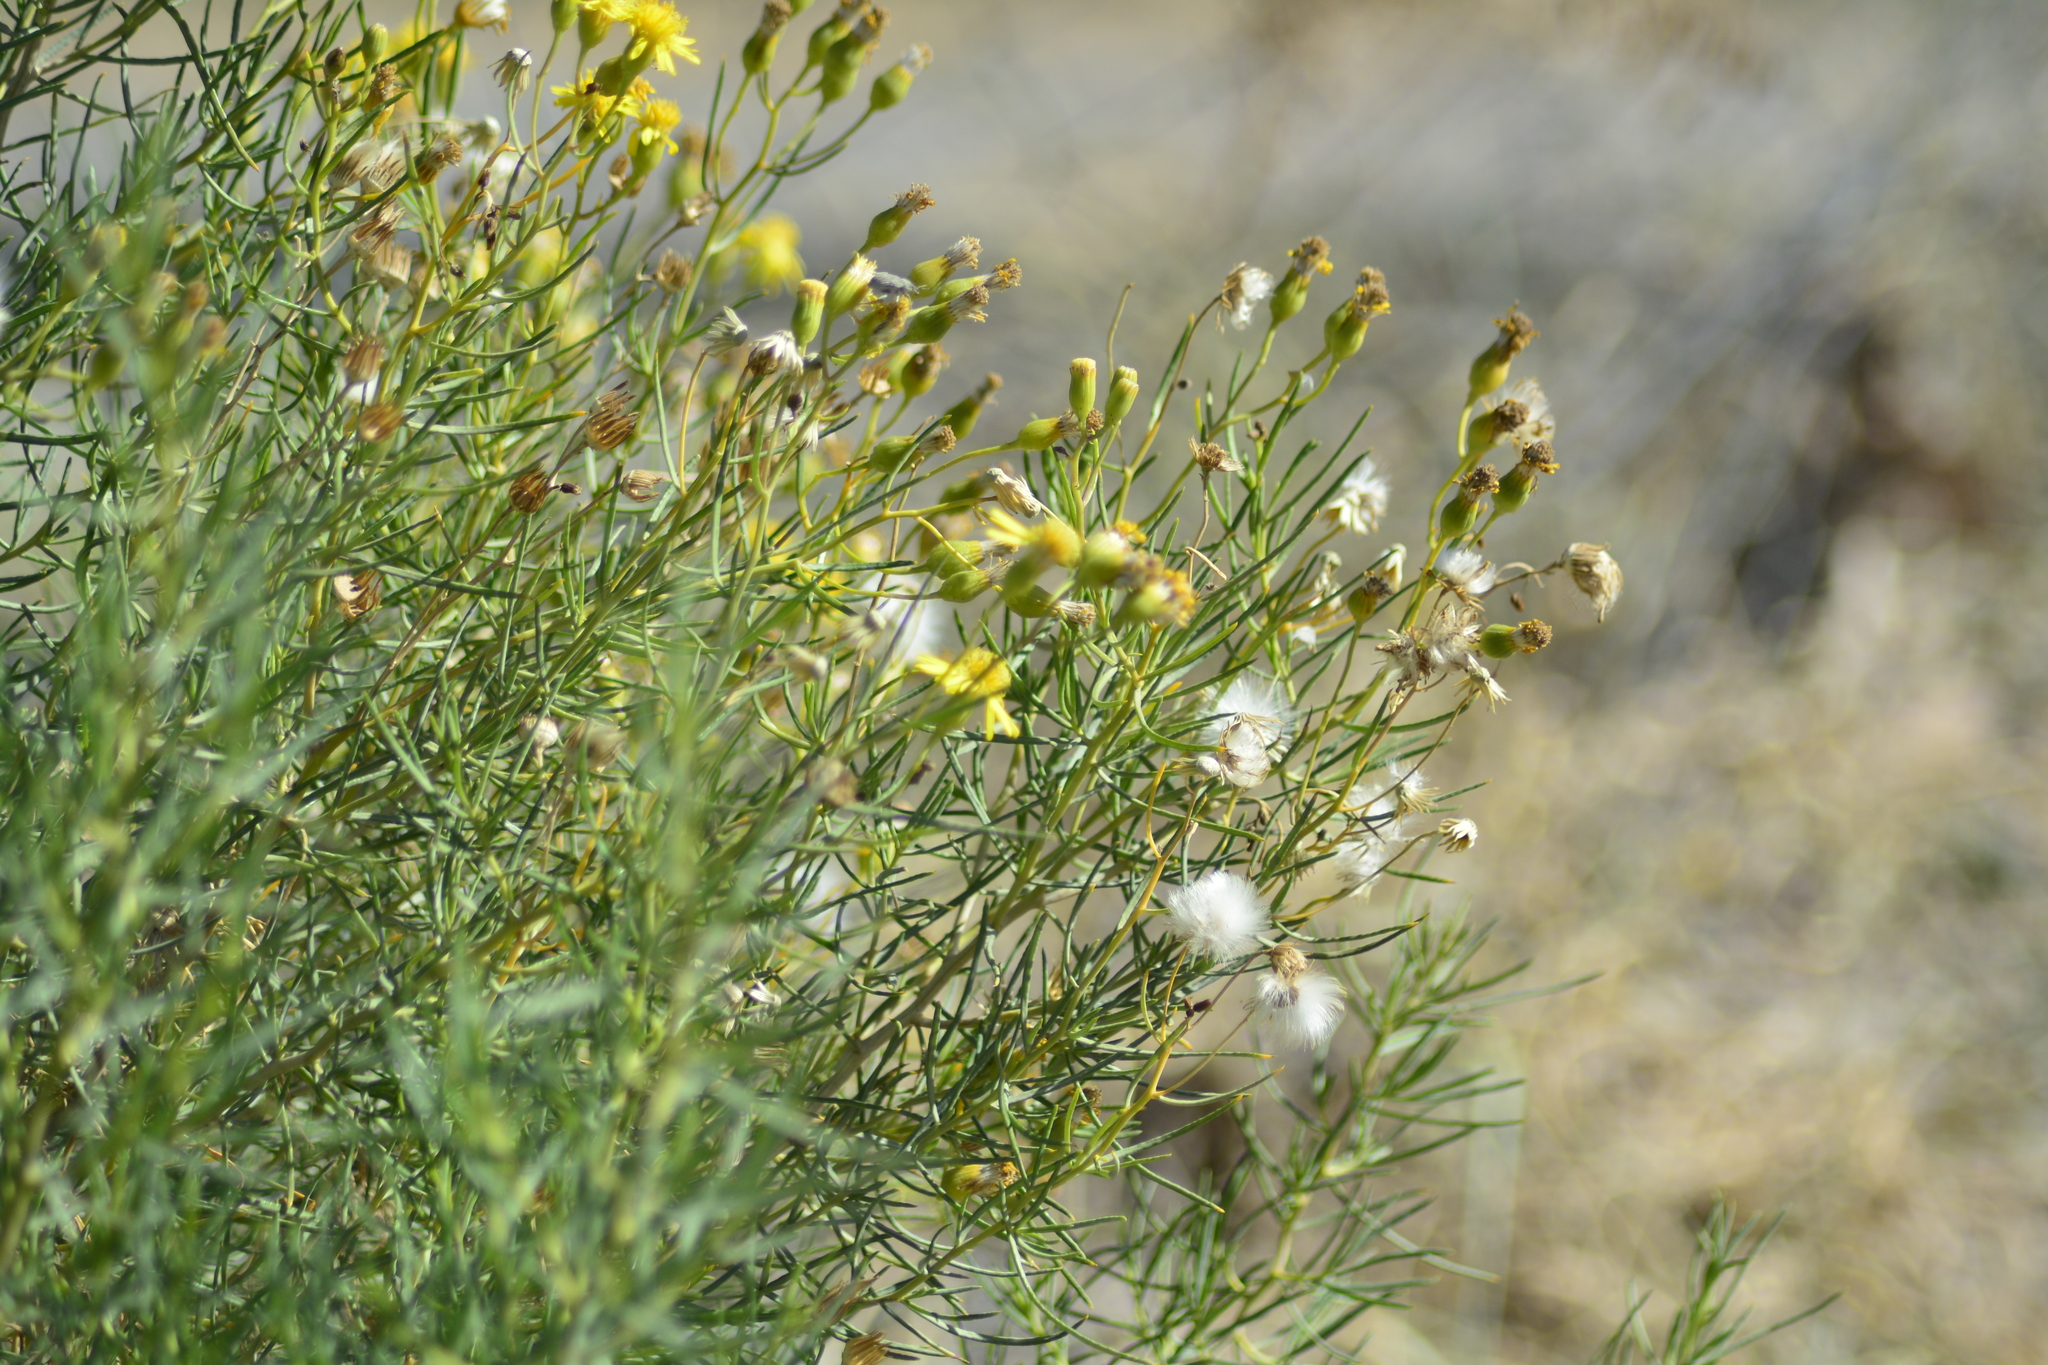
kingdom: Plantae
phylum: Tracheophyta
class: Magnoliopsida
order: Asterales
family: Asteraceae
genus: Senecio
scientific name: Senecio subulatus
